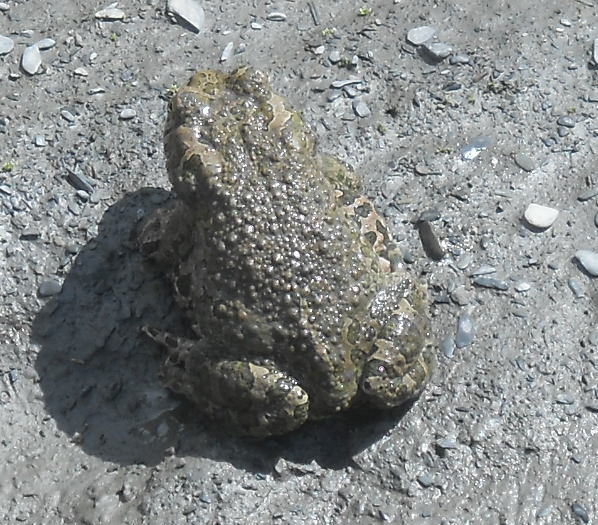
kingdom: Animalia
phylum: Chordata
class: Amphibia
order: Anura
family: Bufonidae
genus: Bufotes
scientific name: Bufotes viridis
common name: European green toad
